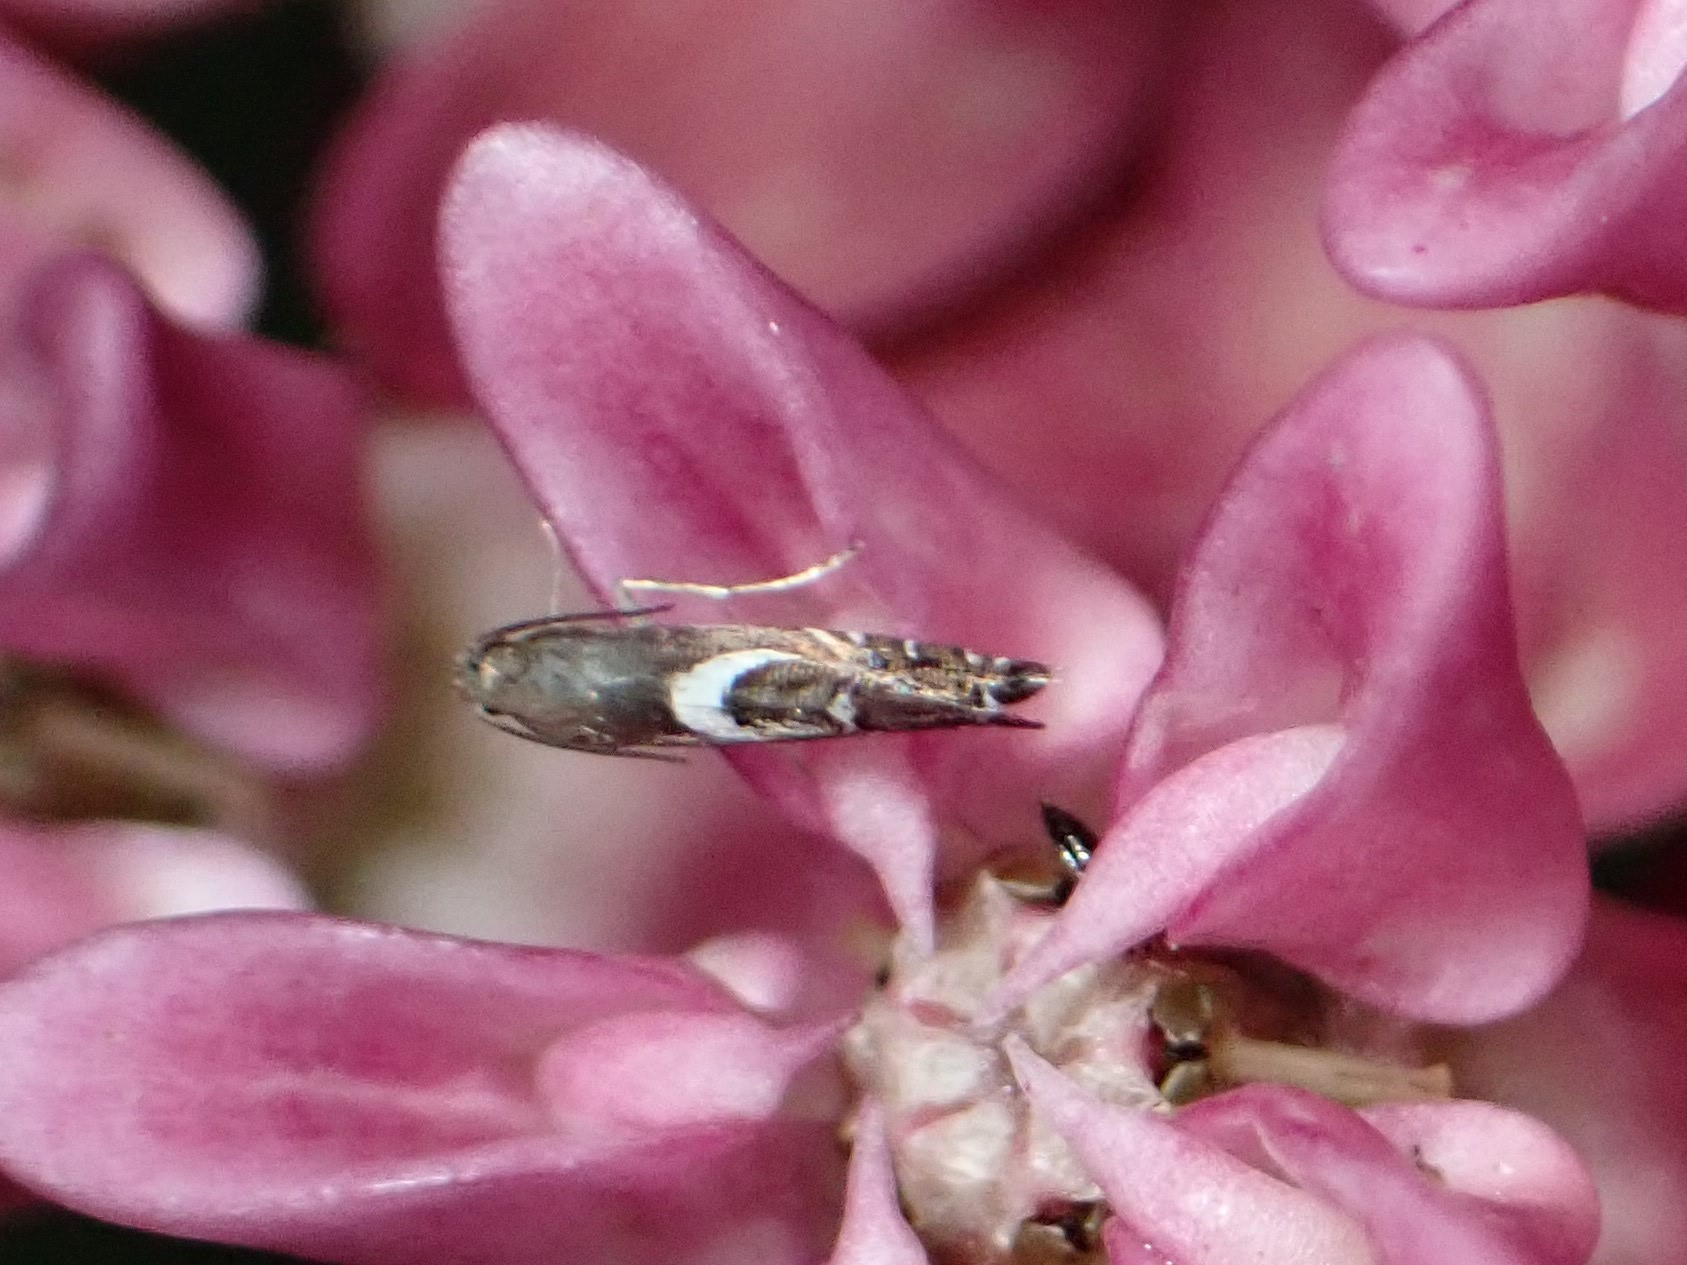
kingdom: Animalia
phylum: Arthropoda
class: Insecta
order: Lepidoptera
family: Glyphipterigidae
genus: Glyphipterix
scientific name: Glyphipterix Diploschizia impigritella
